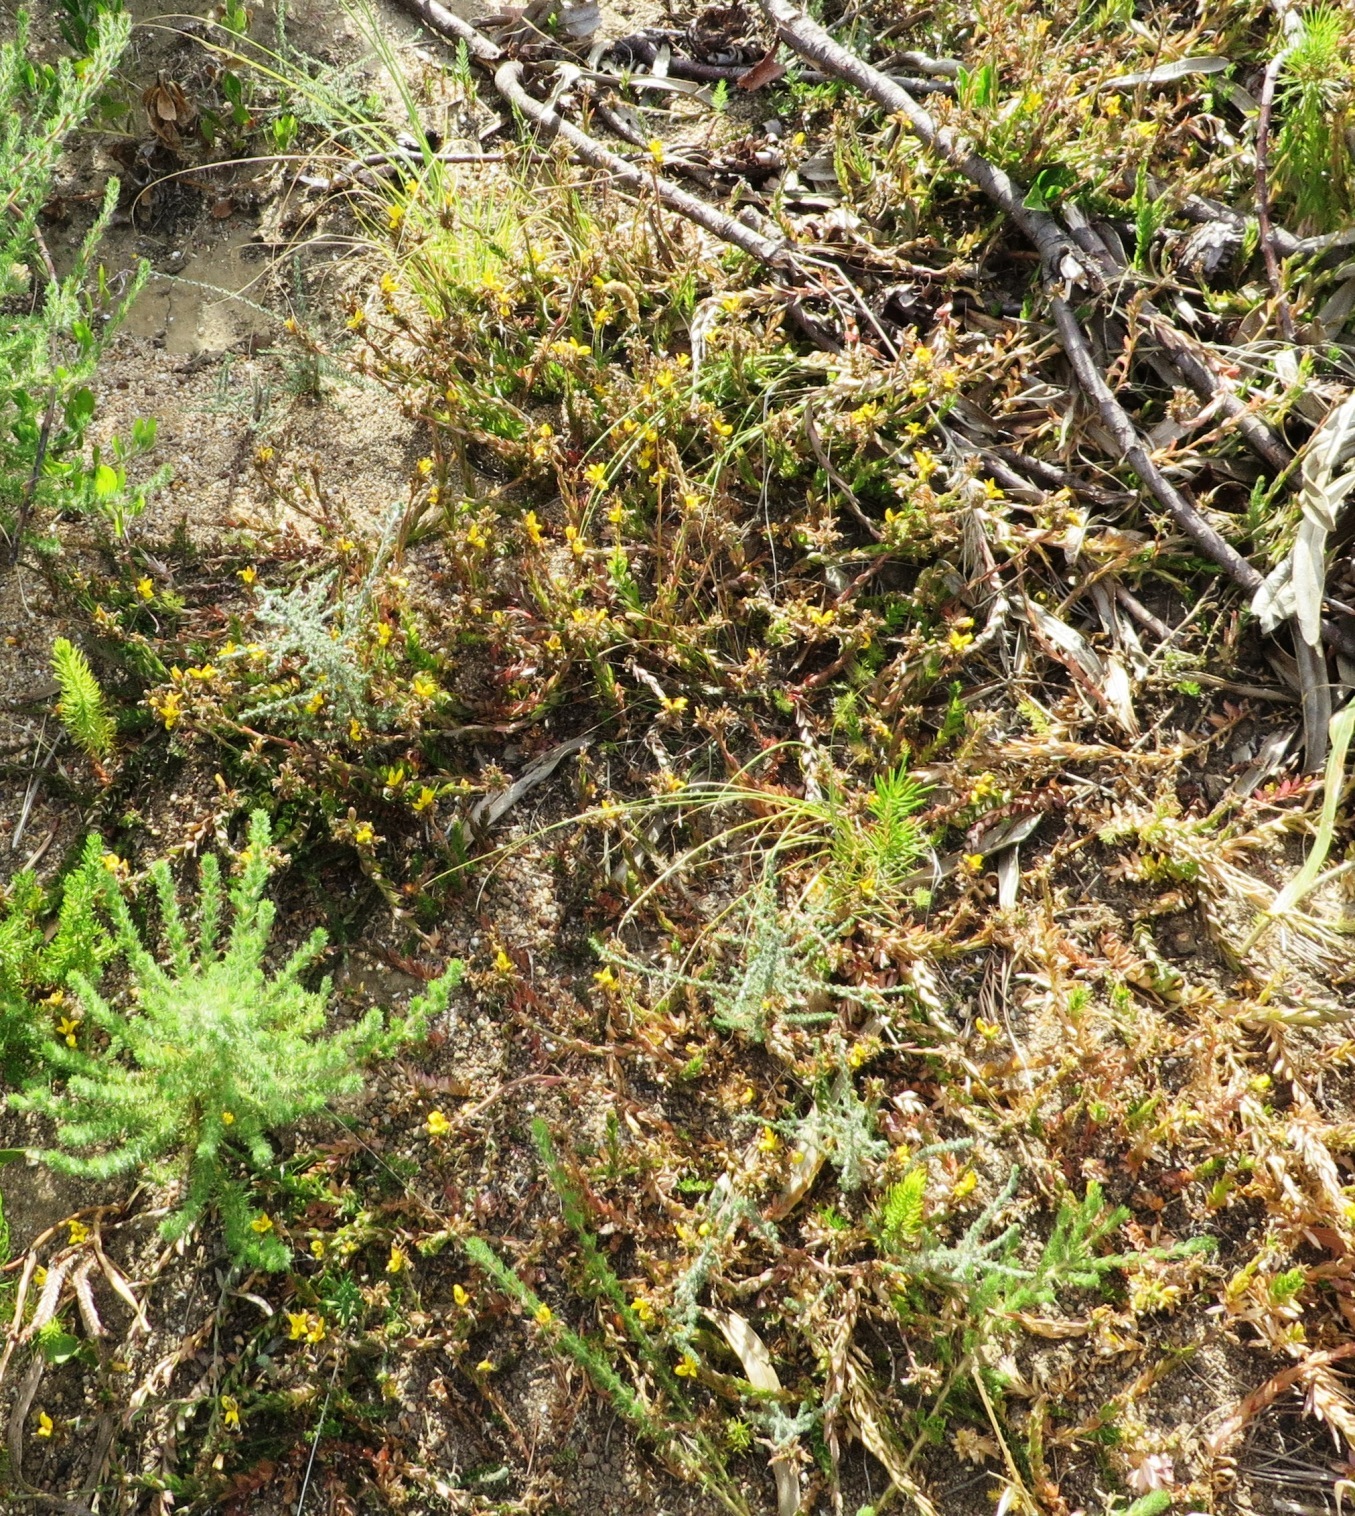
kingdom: Plantae
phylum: Tracheophyta
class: Magnoliopsida
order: Asterales
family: Campanulaceae
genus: Monopsis
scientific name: Monopsis lutea
